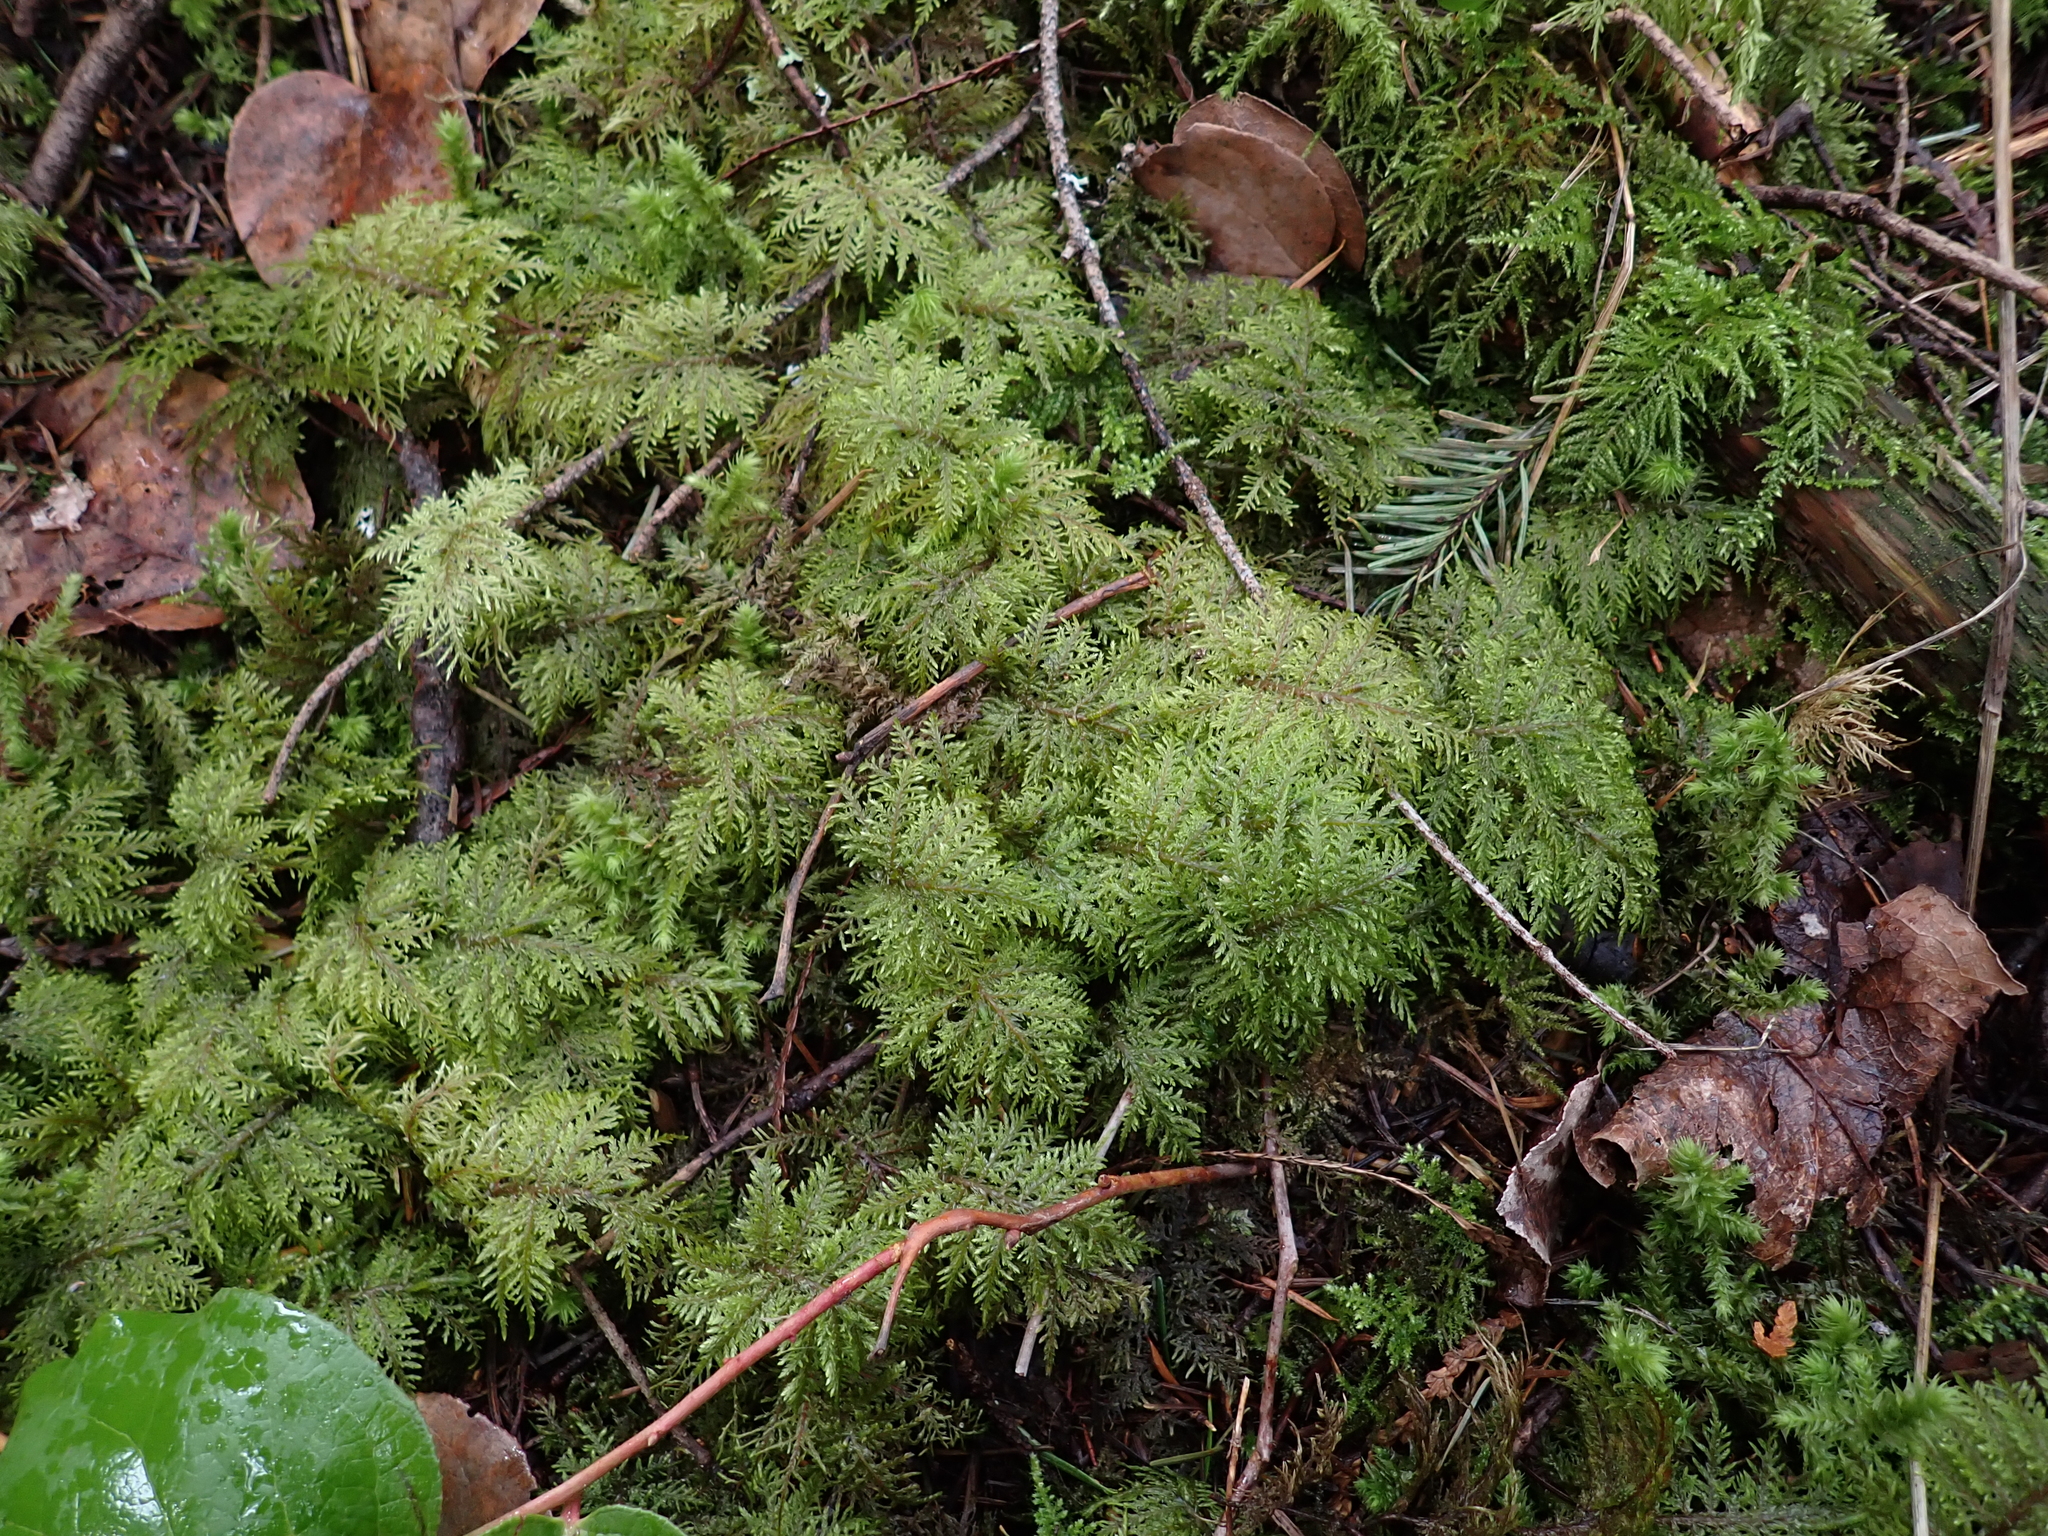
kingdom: Plantae
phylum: Bryophyta
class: Bryopsida
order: Hypnales
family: Hylocomiaceae
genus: Hylocomium
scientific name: Hylocomium splendens
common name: Stairstep moss
